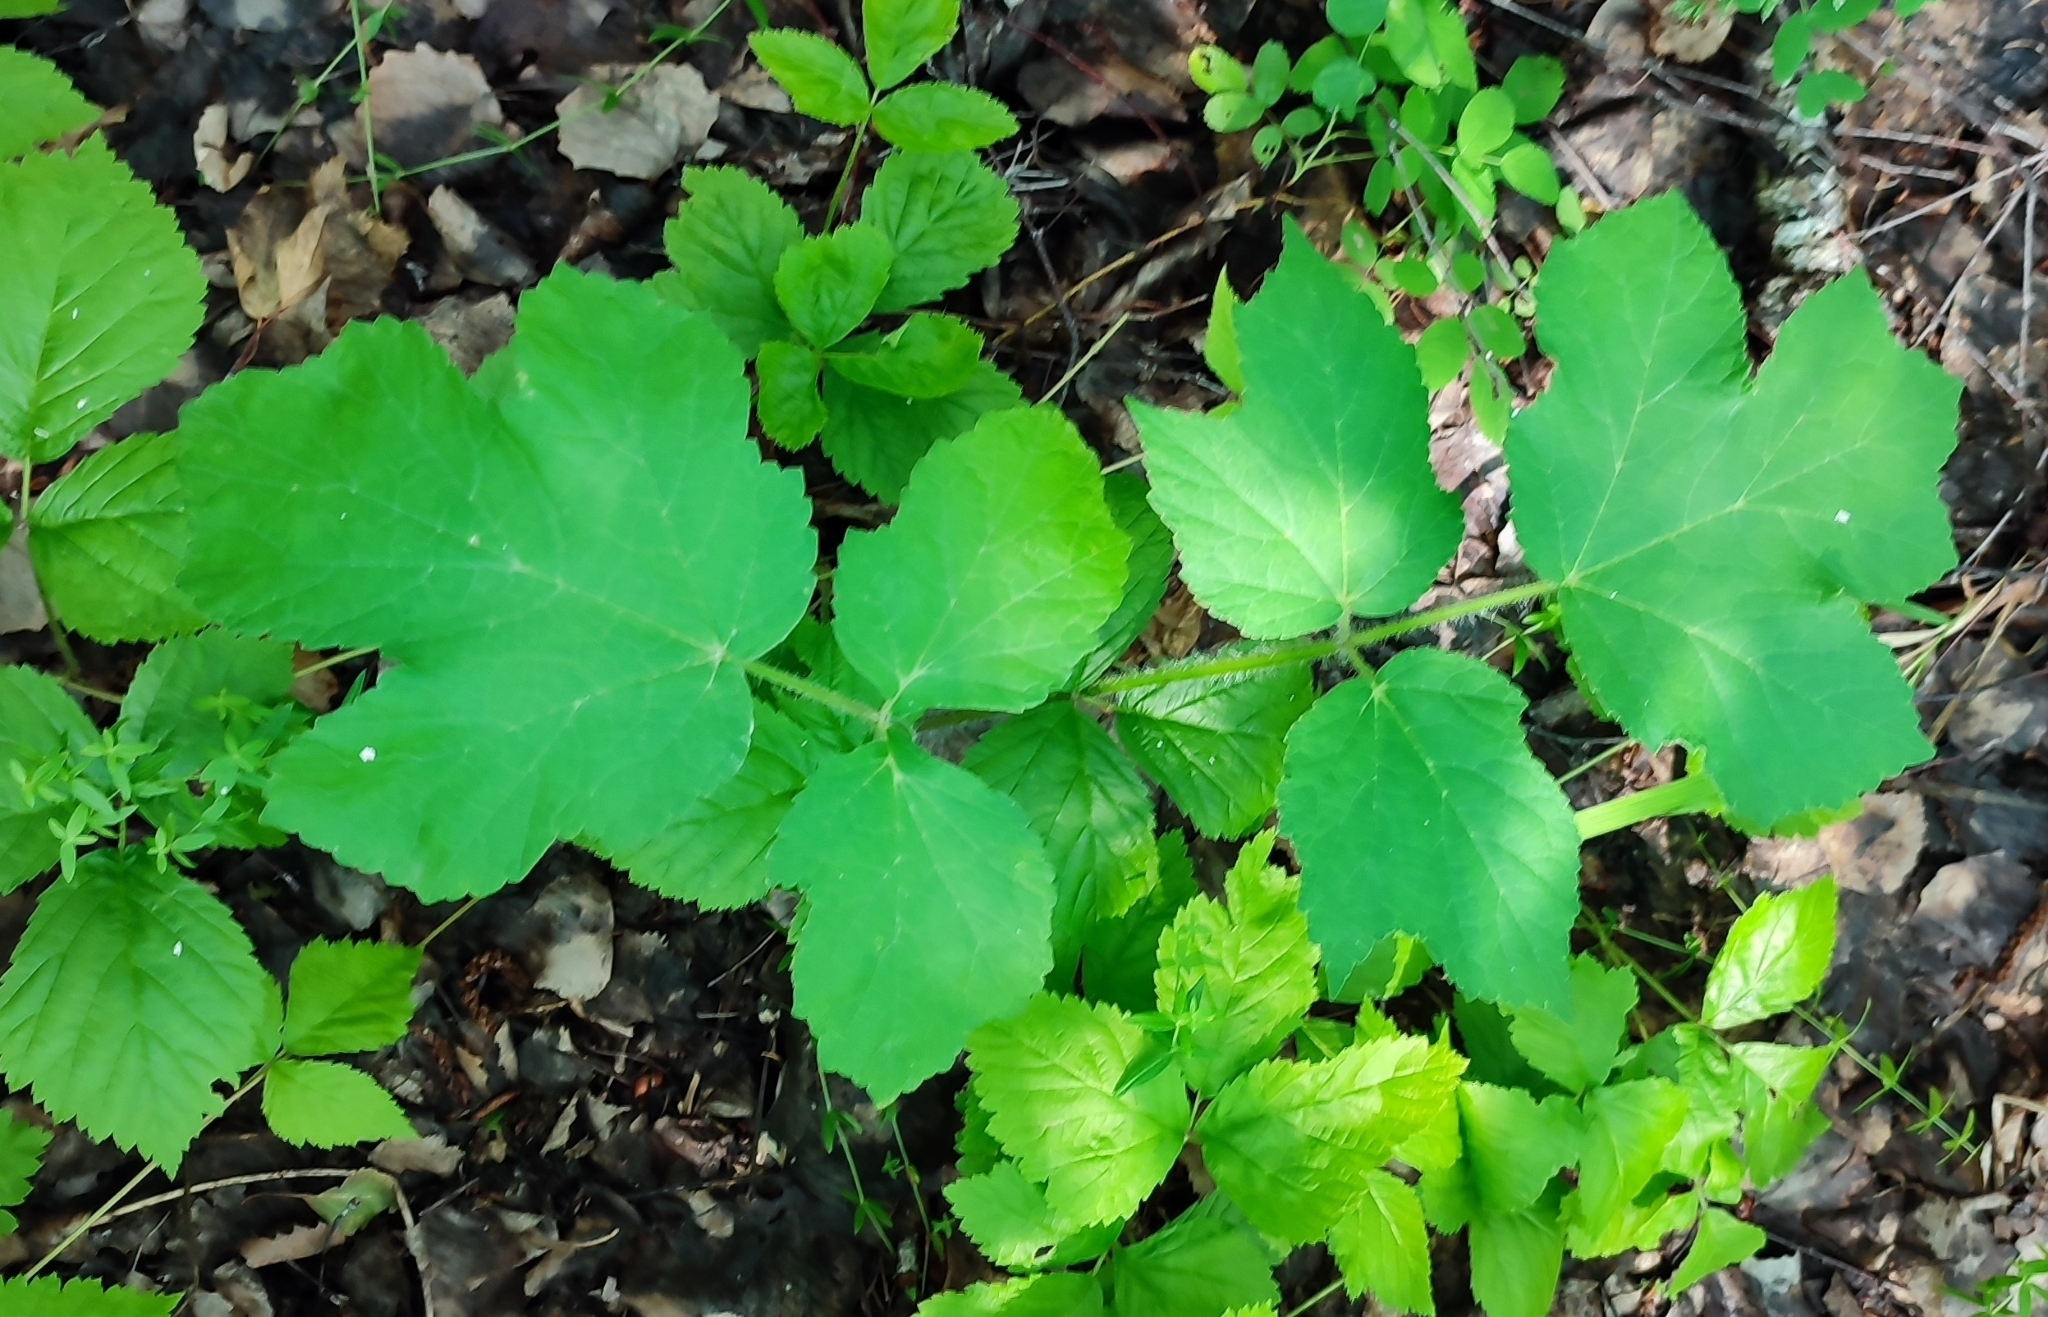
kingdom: Plantae
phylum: Tracheophyta
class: Magnoliopsida
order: Apiales
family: Apiaceae
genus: Heracleum
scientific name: Heracleum sphondylium
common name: Hogweed
